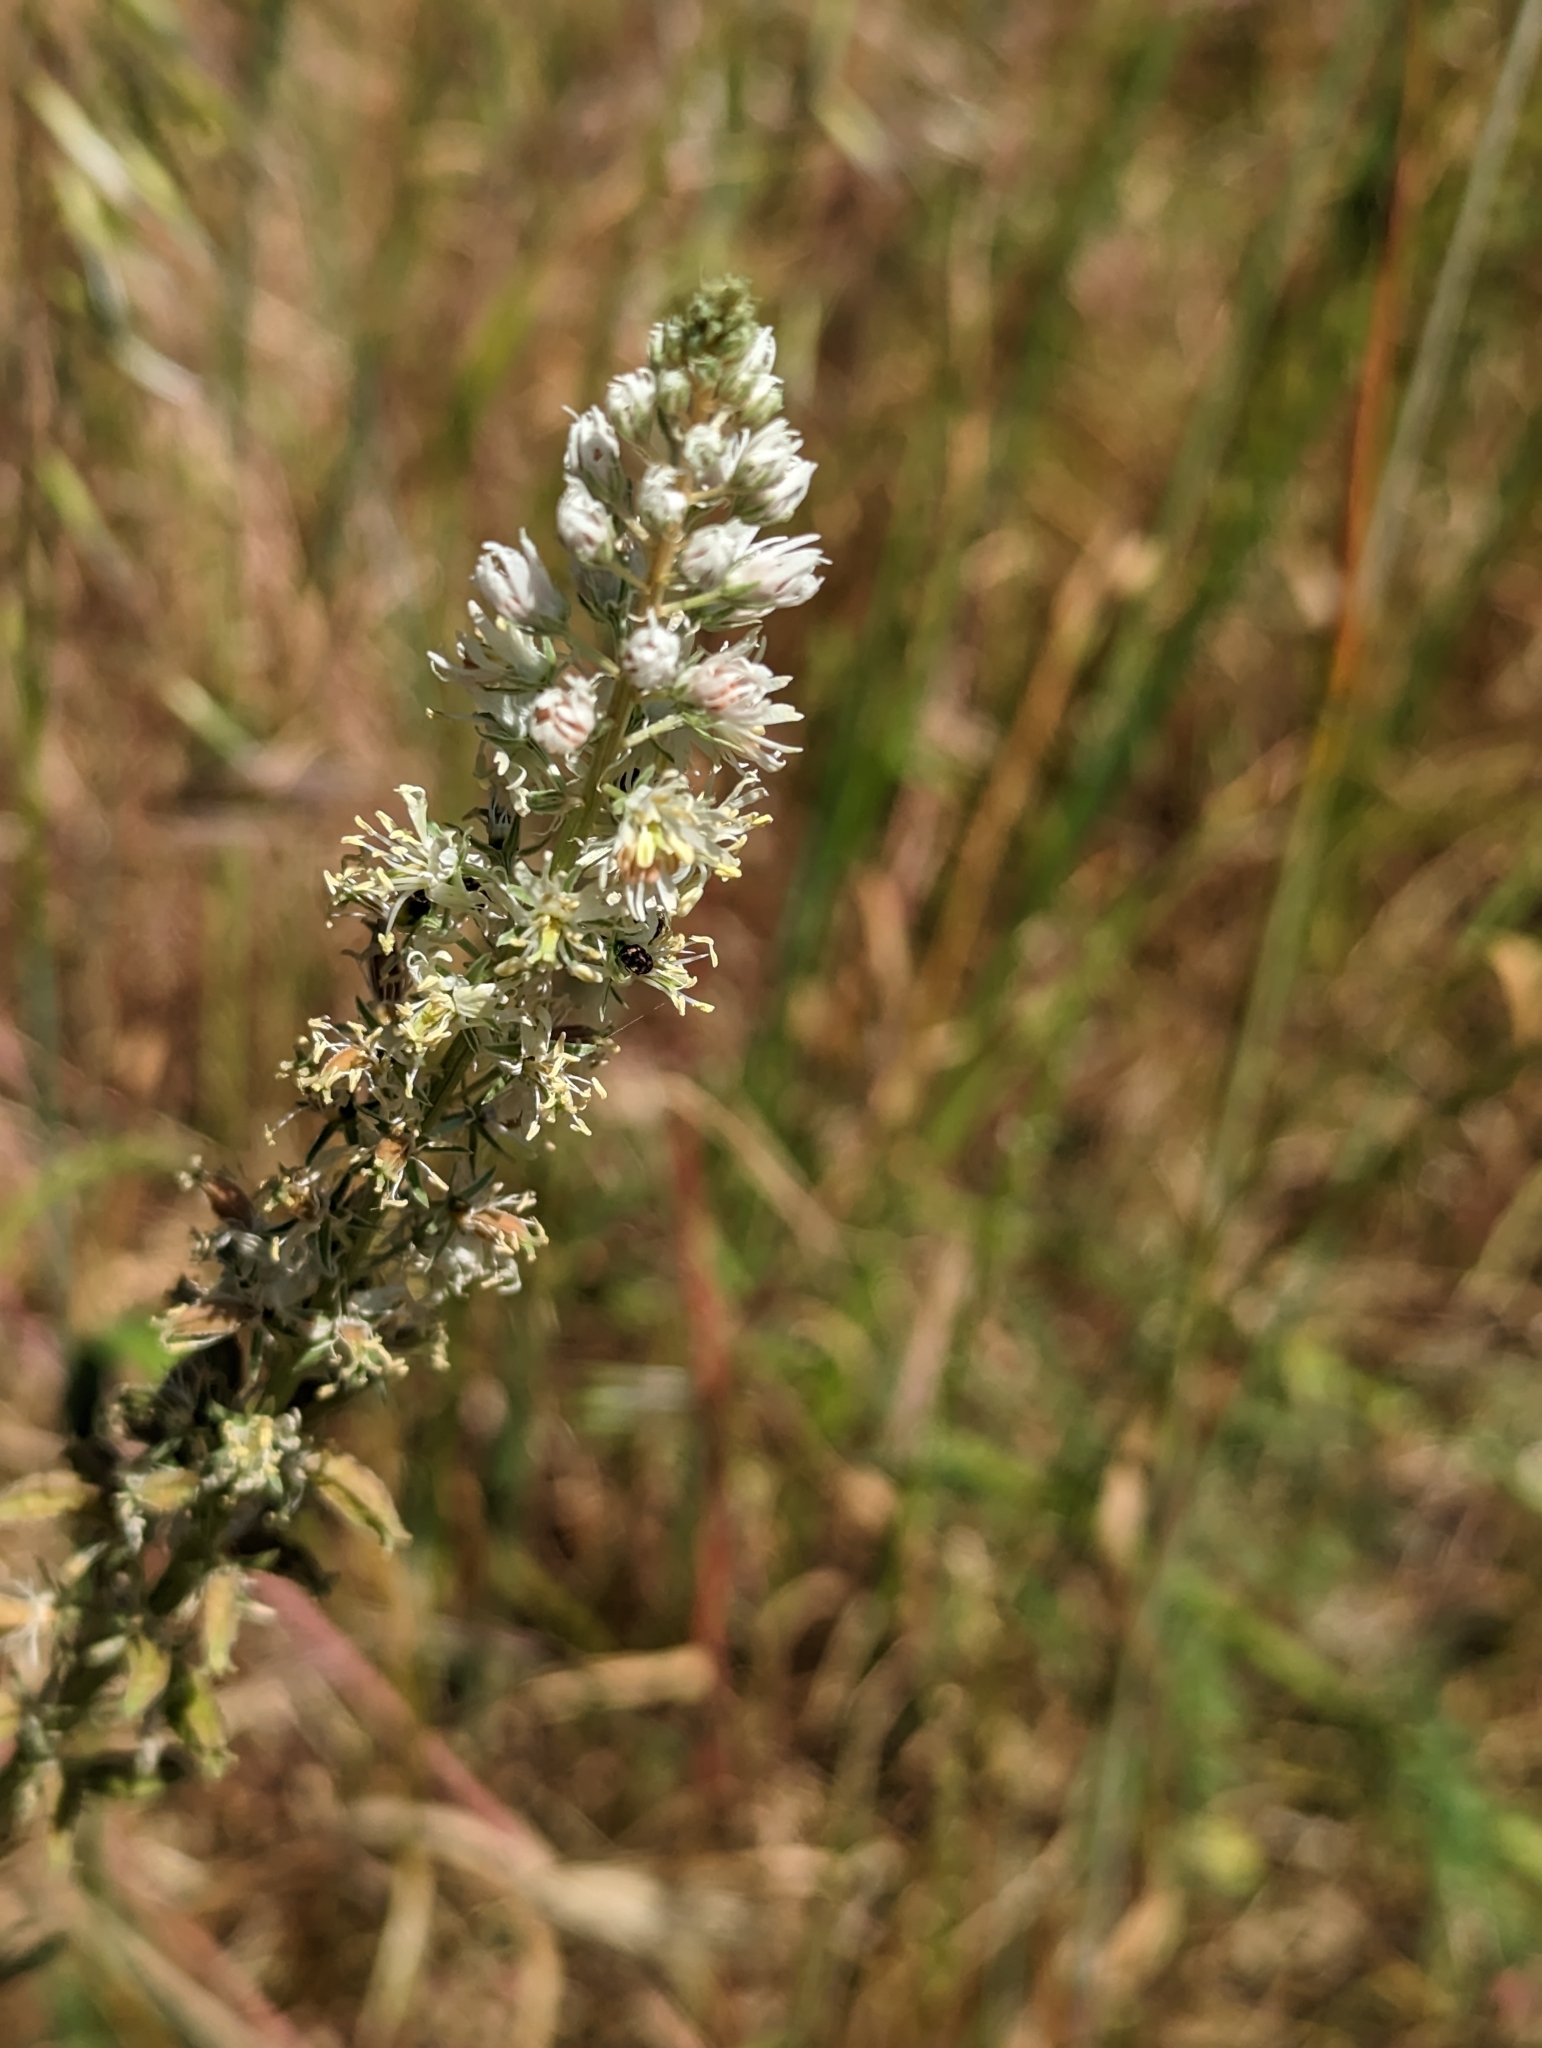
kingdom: Plantae
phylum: Tracheophyta
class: Magnoliopsida
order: Brassicales
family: Resedaceae
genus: Reseda
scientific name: Reseda alba
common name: White mignonette
